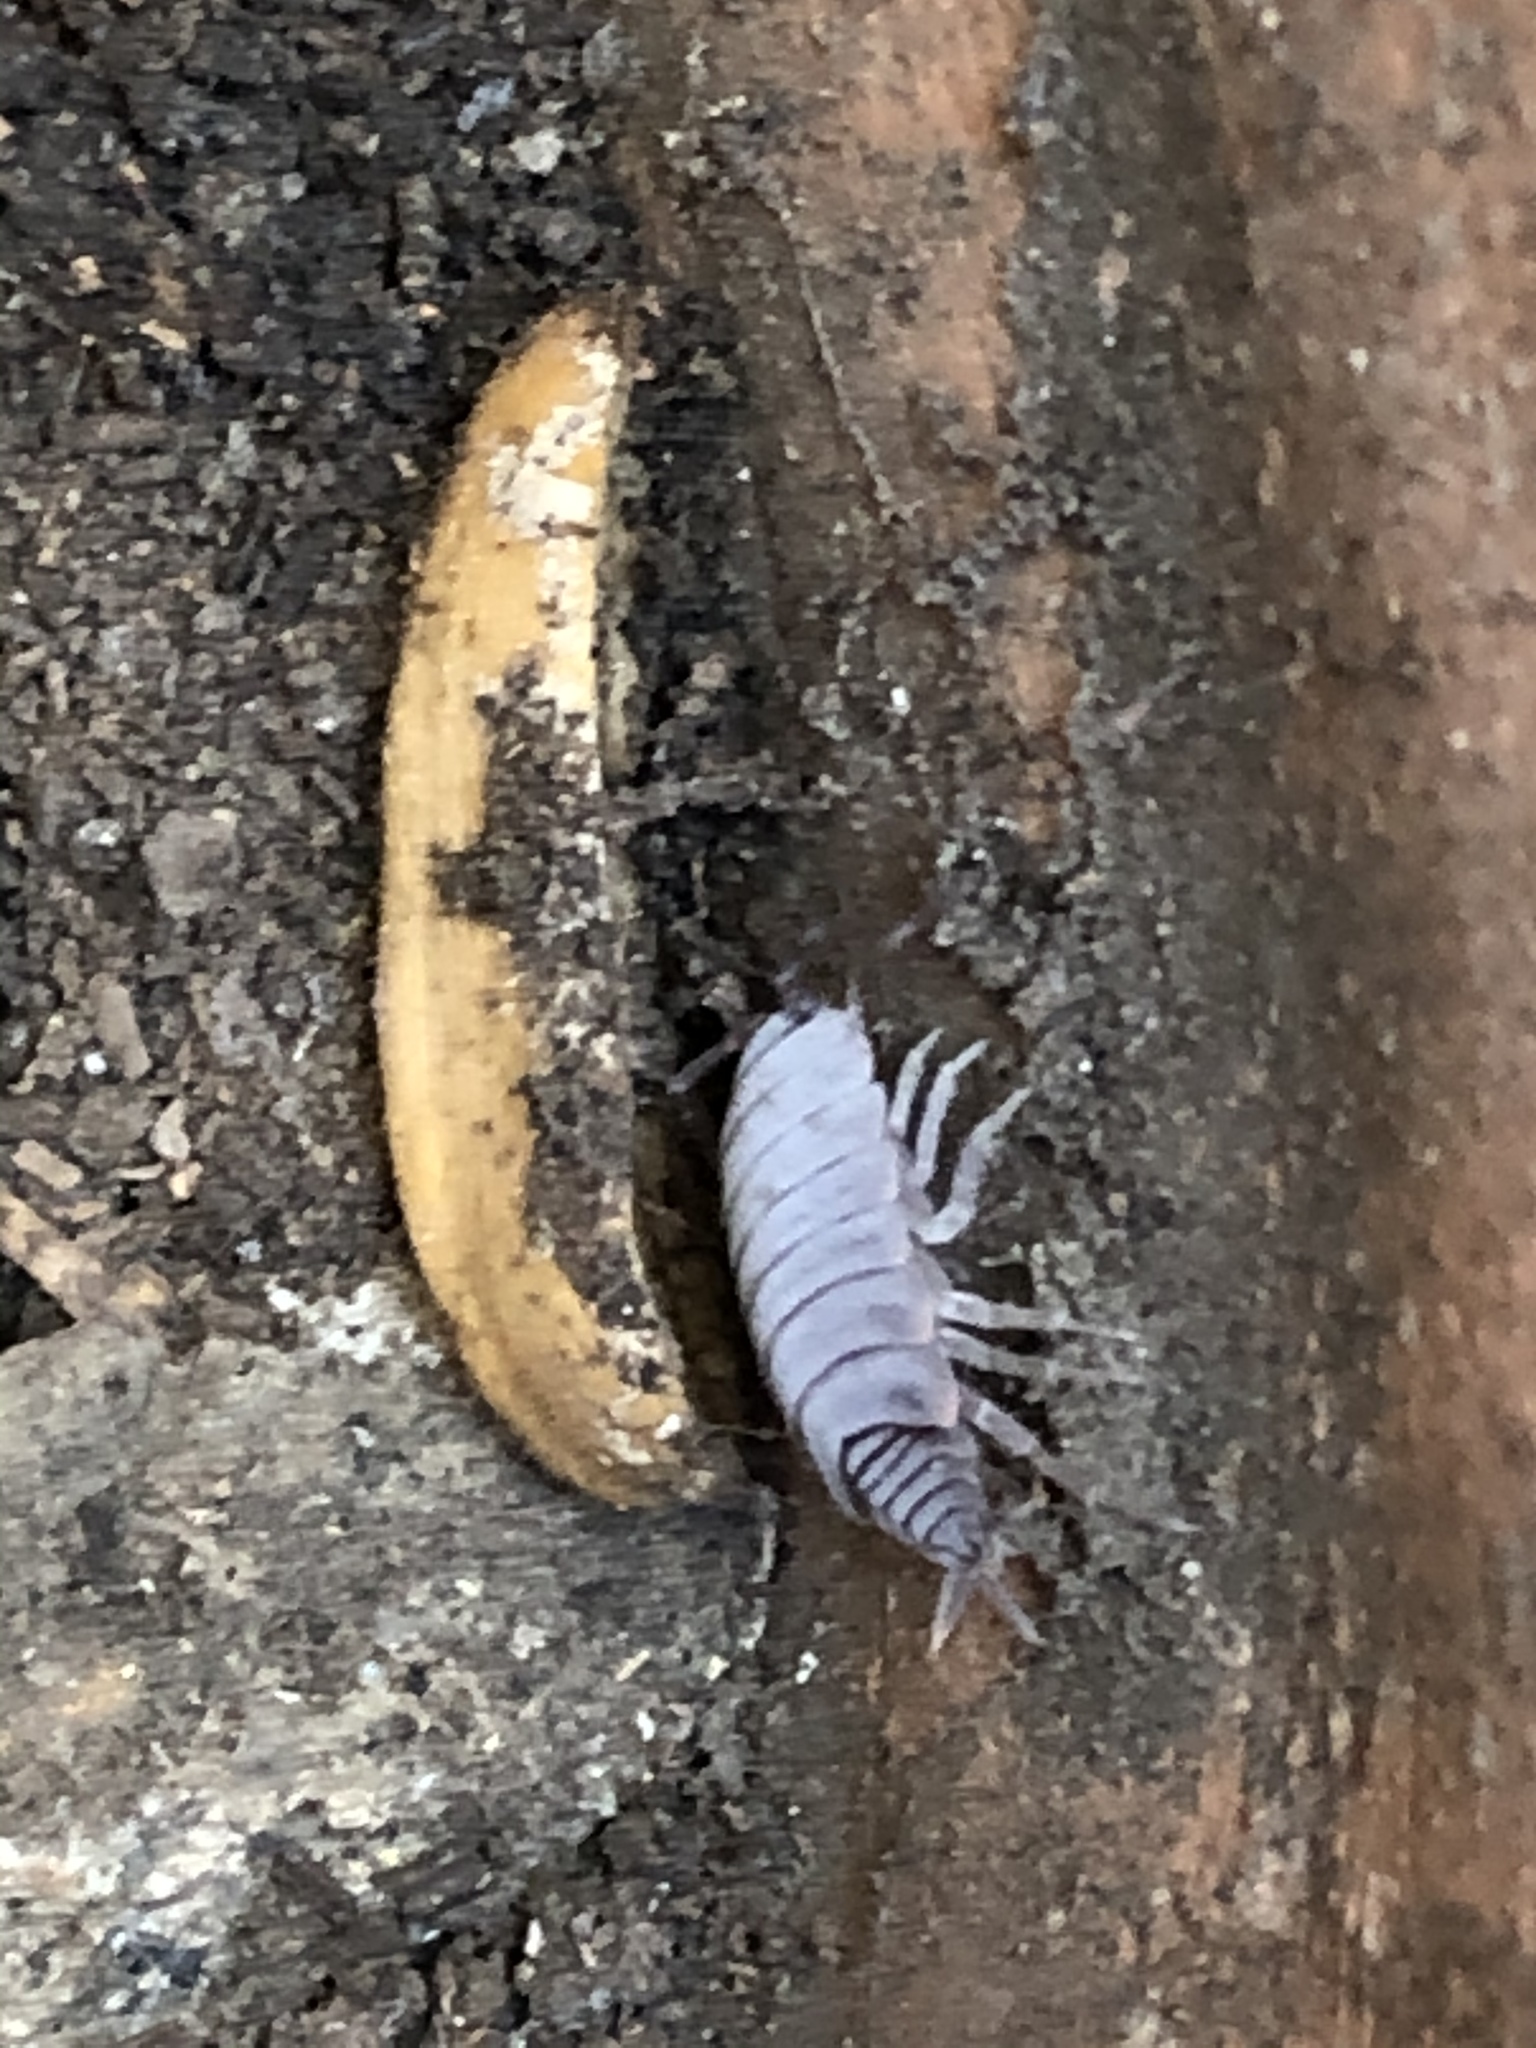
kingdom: Animalia
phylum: Arthropoda
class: Malacostraca
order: Isopoda
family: Porcellionidae
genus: Porcellionides
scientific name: Porcellionides pruinosus
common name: Plum woodlouse
